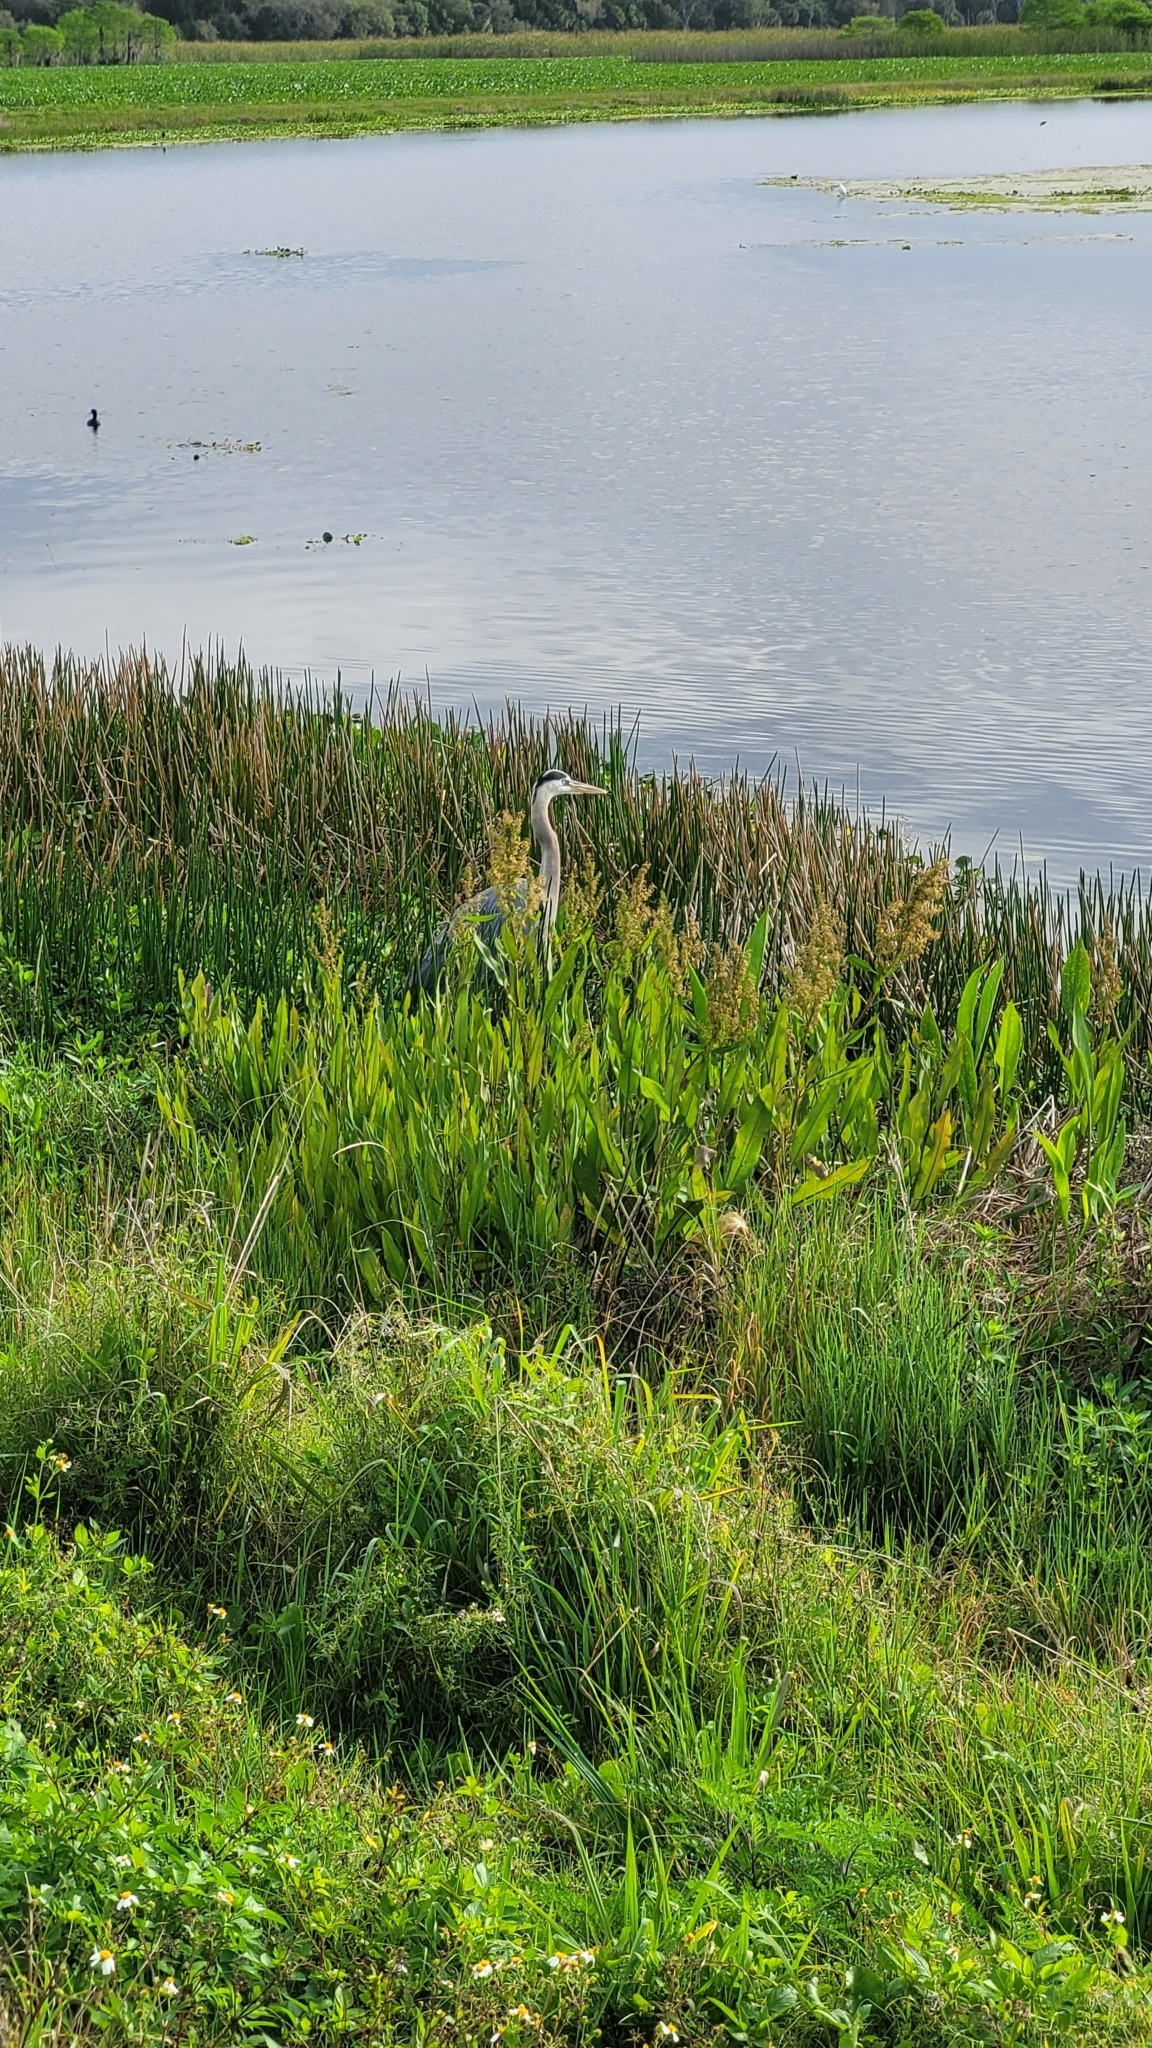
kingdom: Animalia
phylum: Chordata
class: Aves
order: Pelecaniformes
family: Ardeidae
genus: Ardea
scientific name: Ardea herodias
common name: Great blue heron
